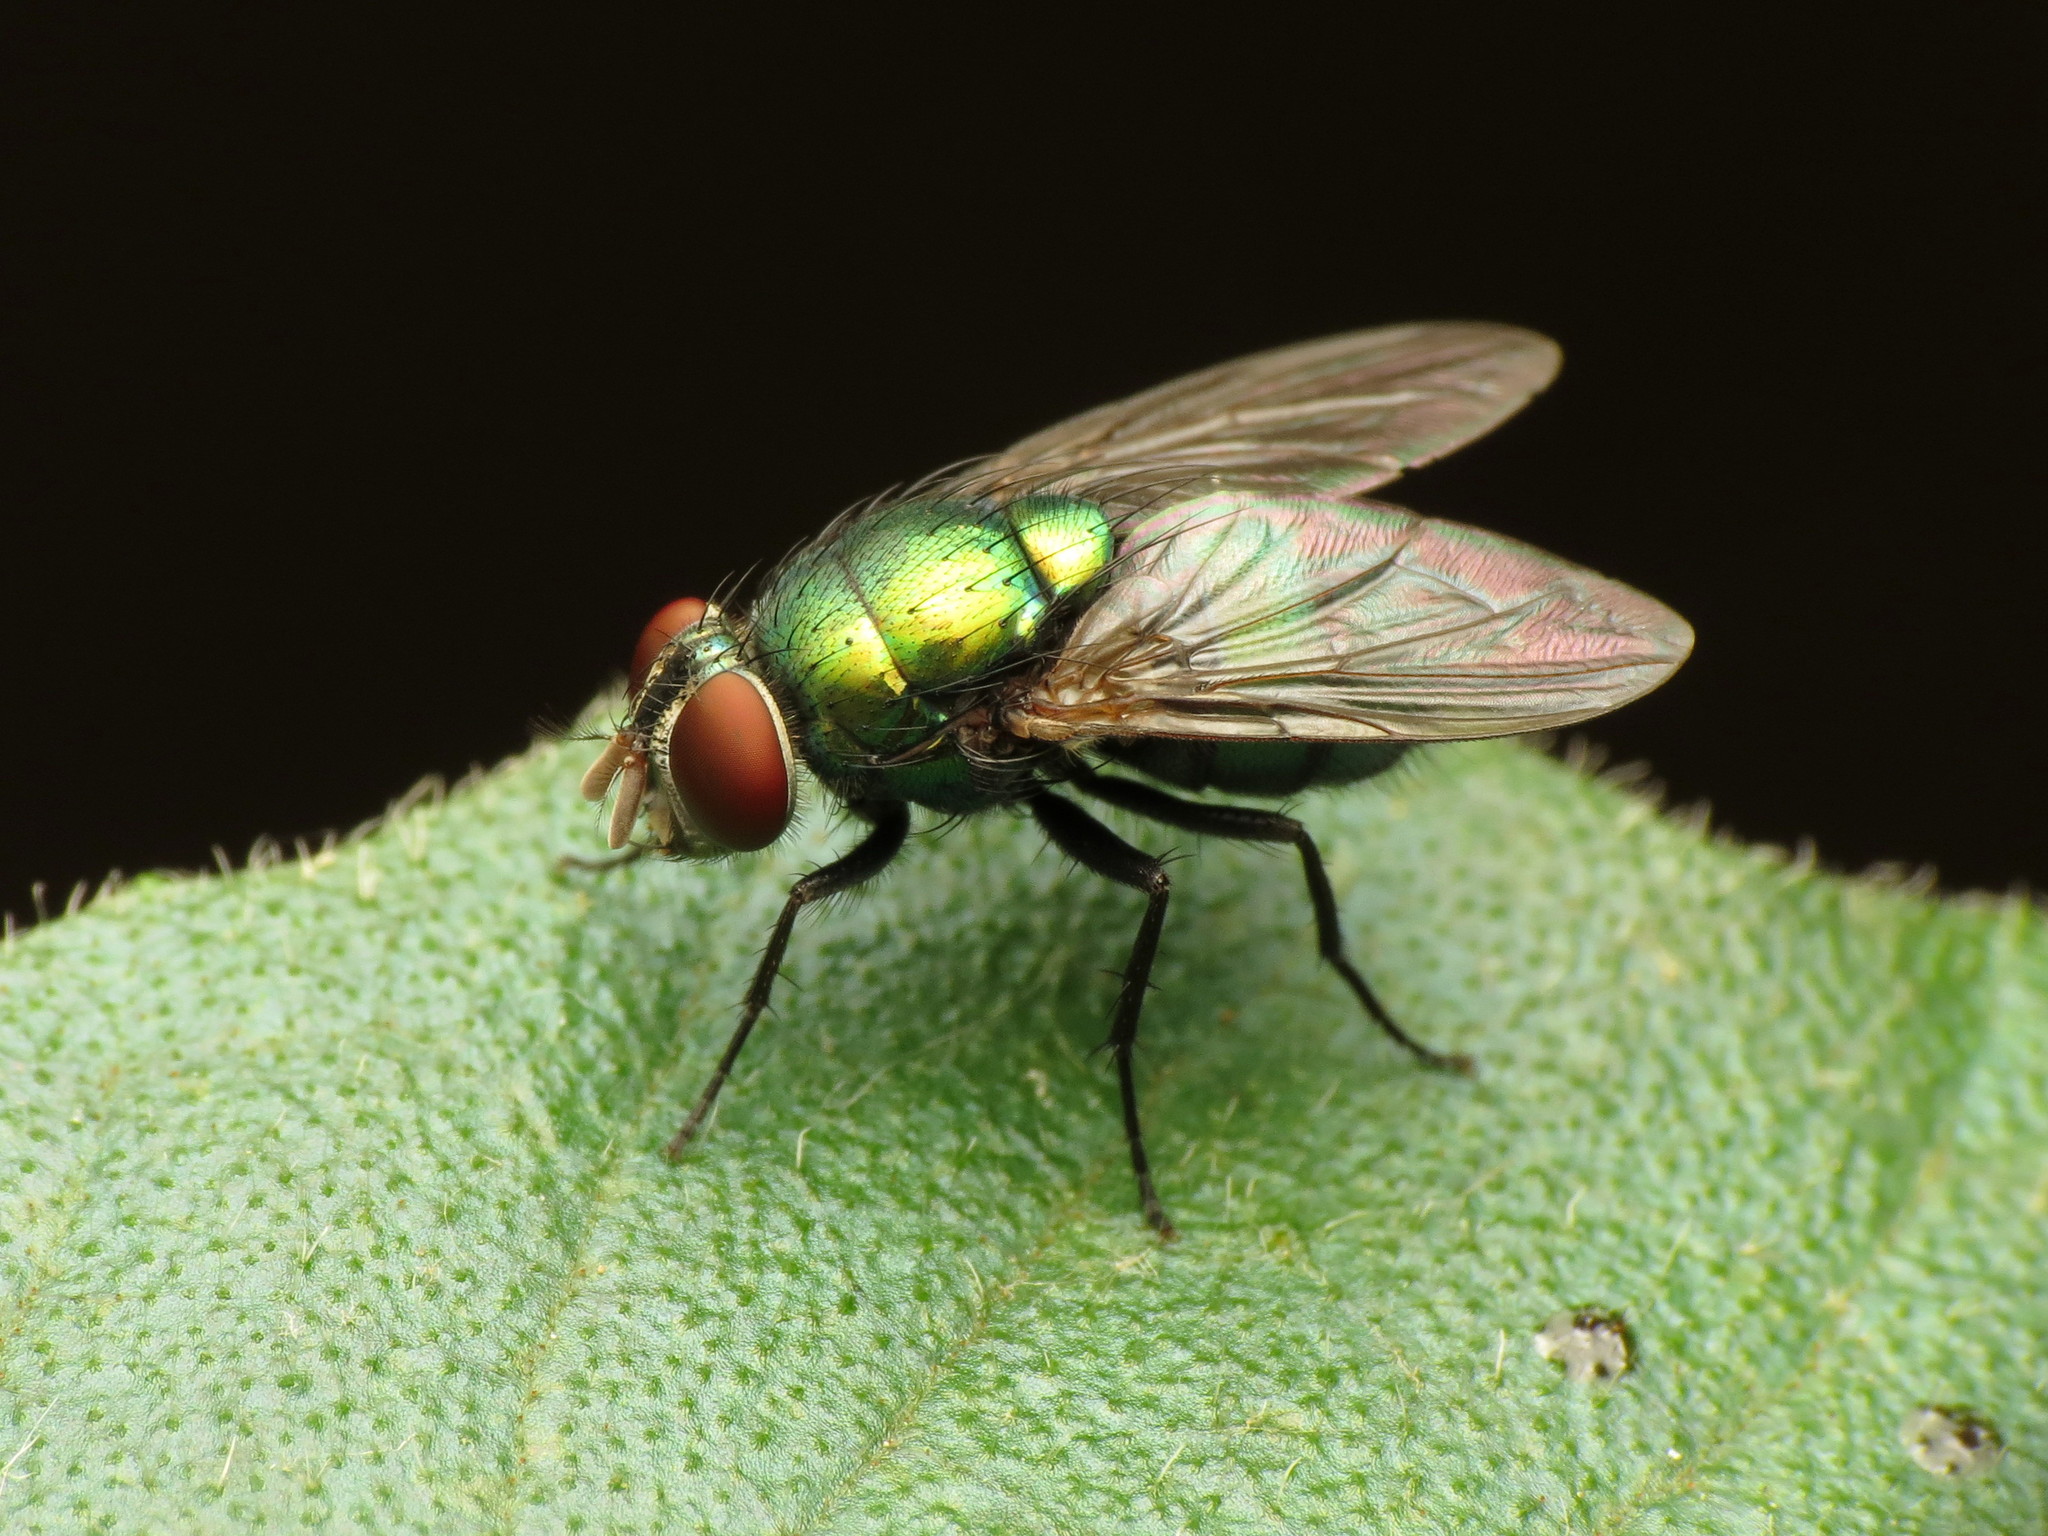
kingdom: Animalia
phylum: Arthropoda
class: Insecta
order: Diptera
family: Calliphoridae
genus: Lucilia
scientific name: Lucilia caeruleiviridis
